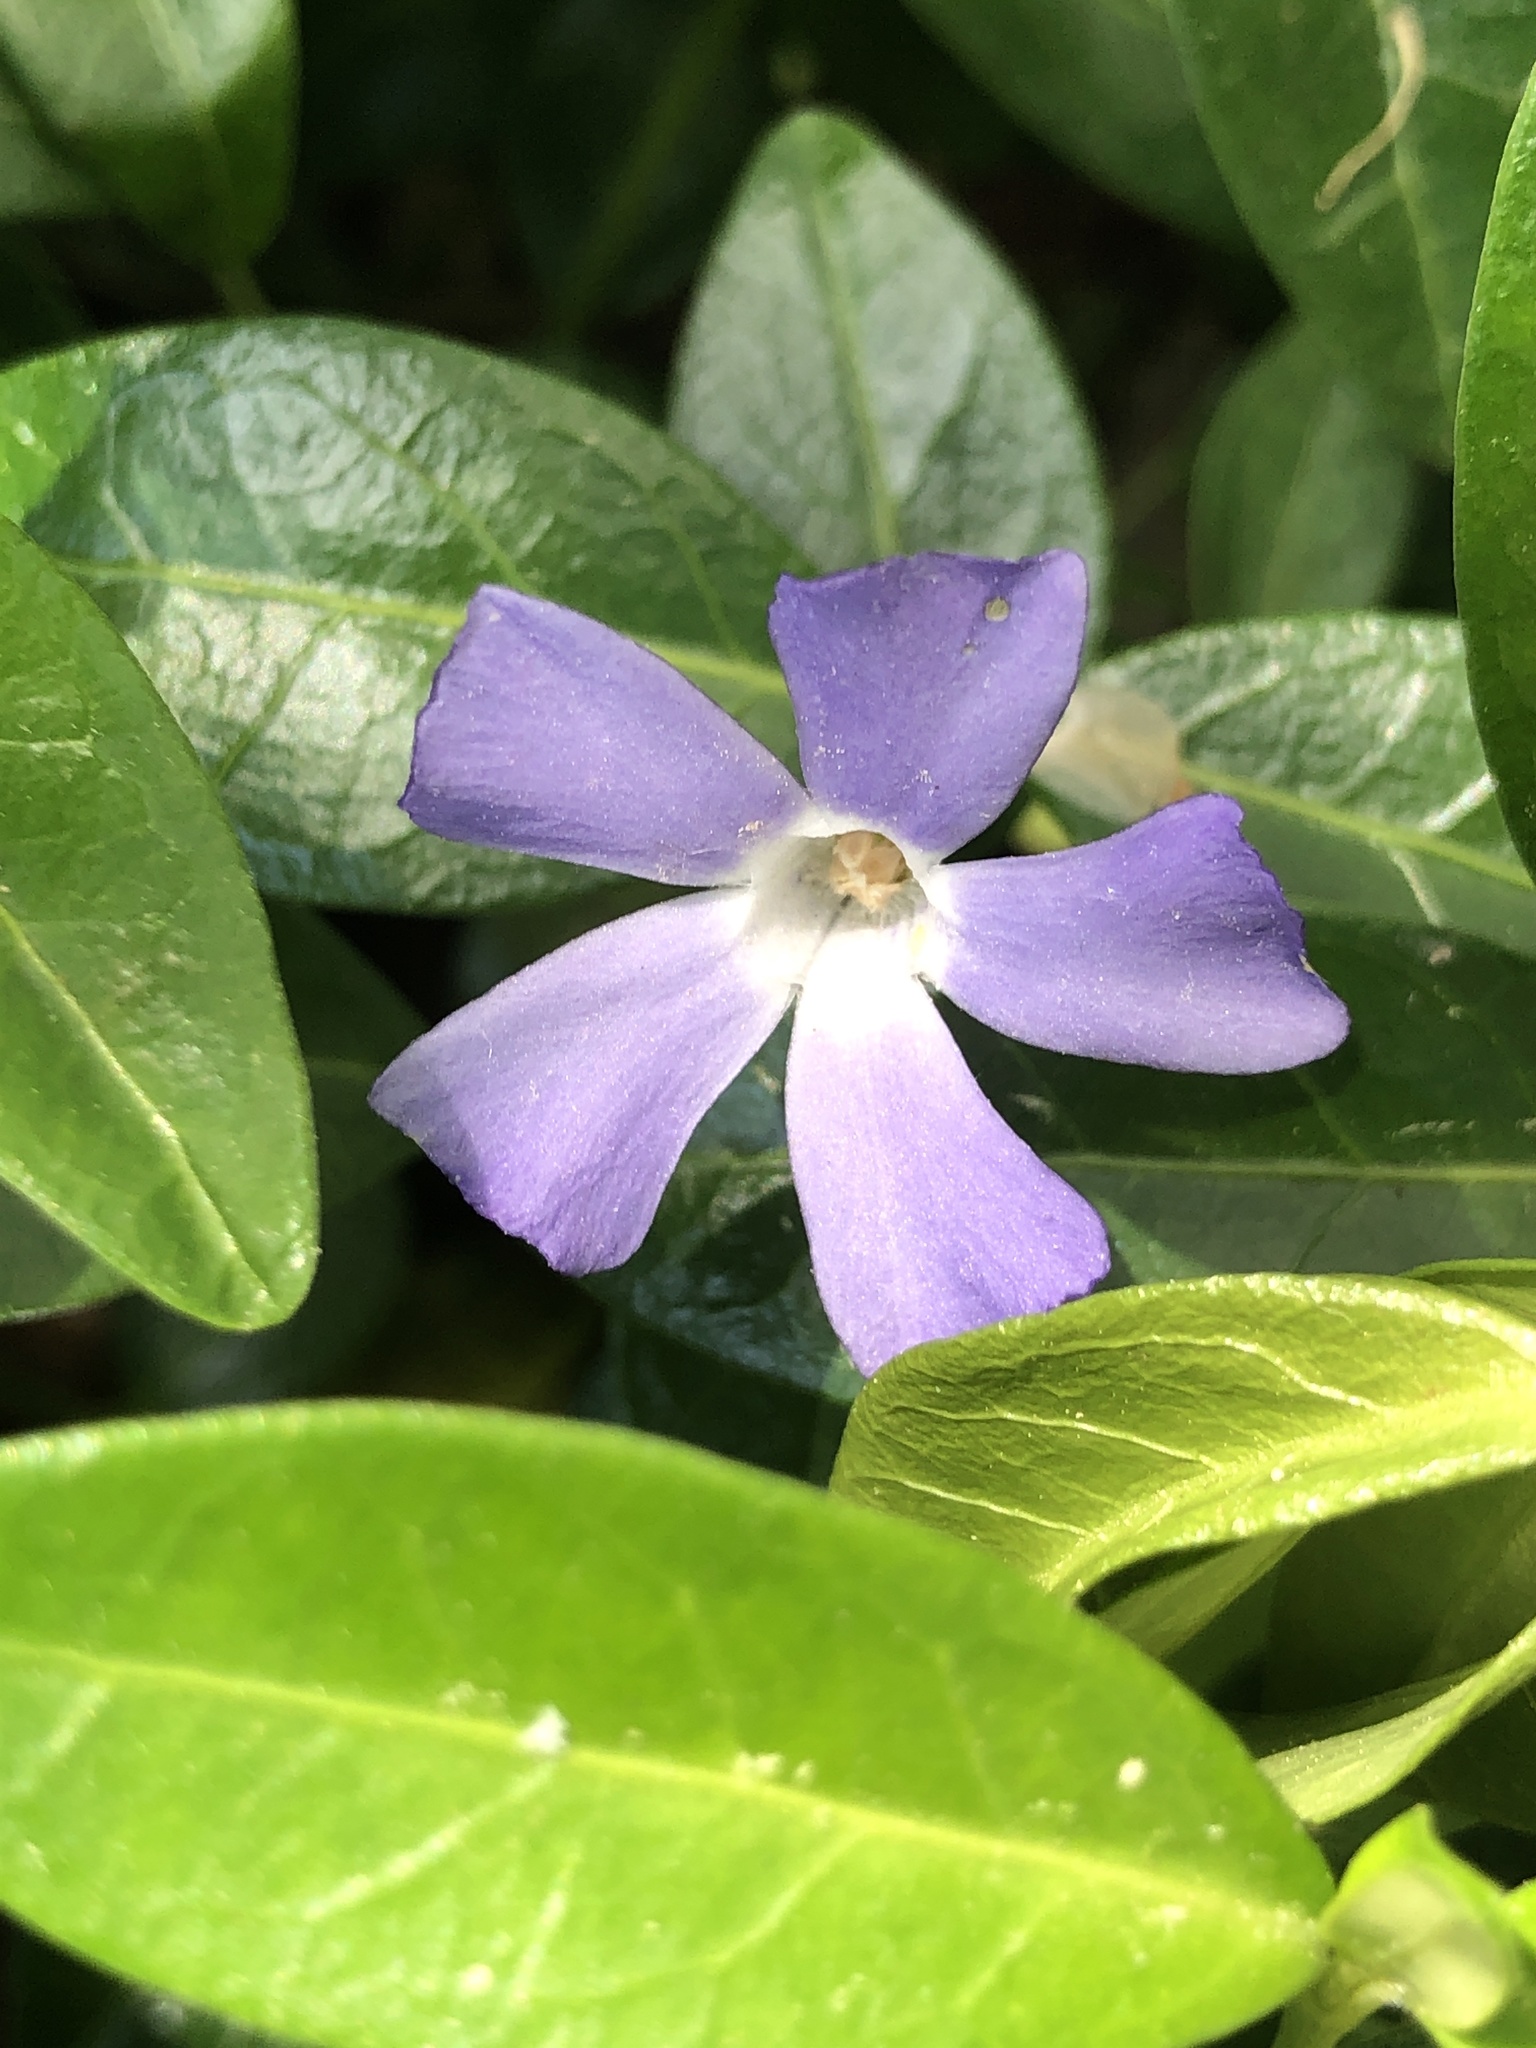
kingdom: Plantae
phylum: Tracheophyta
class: Magnoliopsida
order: Gentianales
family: Apocynaceae
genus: Vinca
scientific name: Vinca minor
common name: Lesser periwinkle
